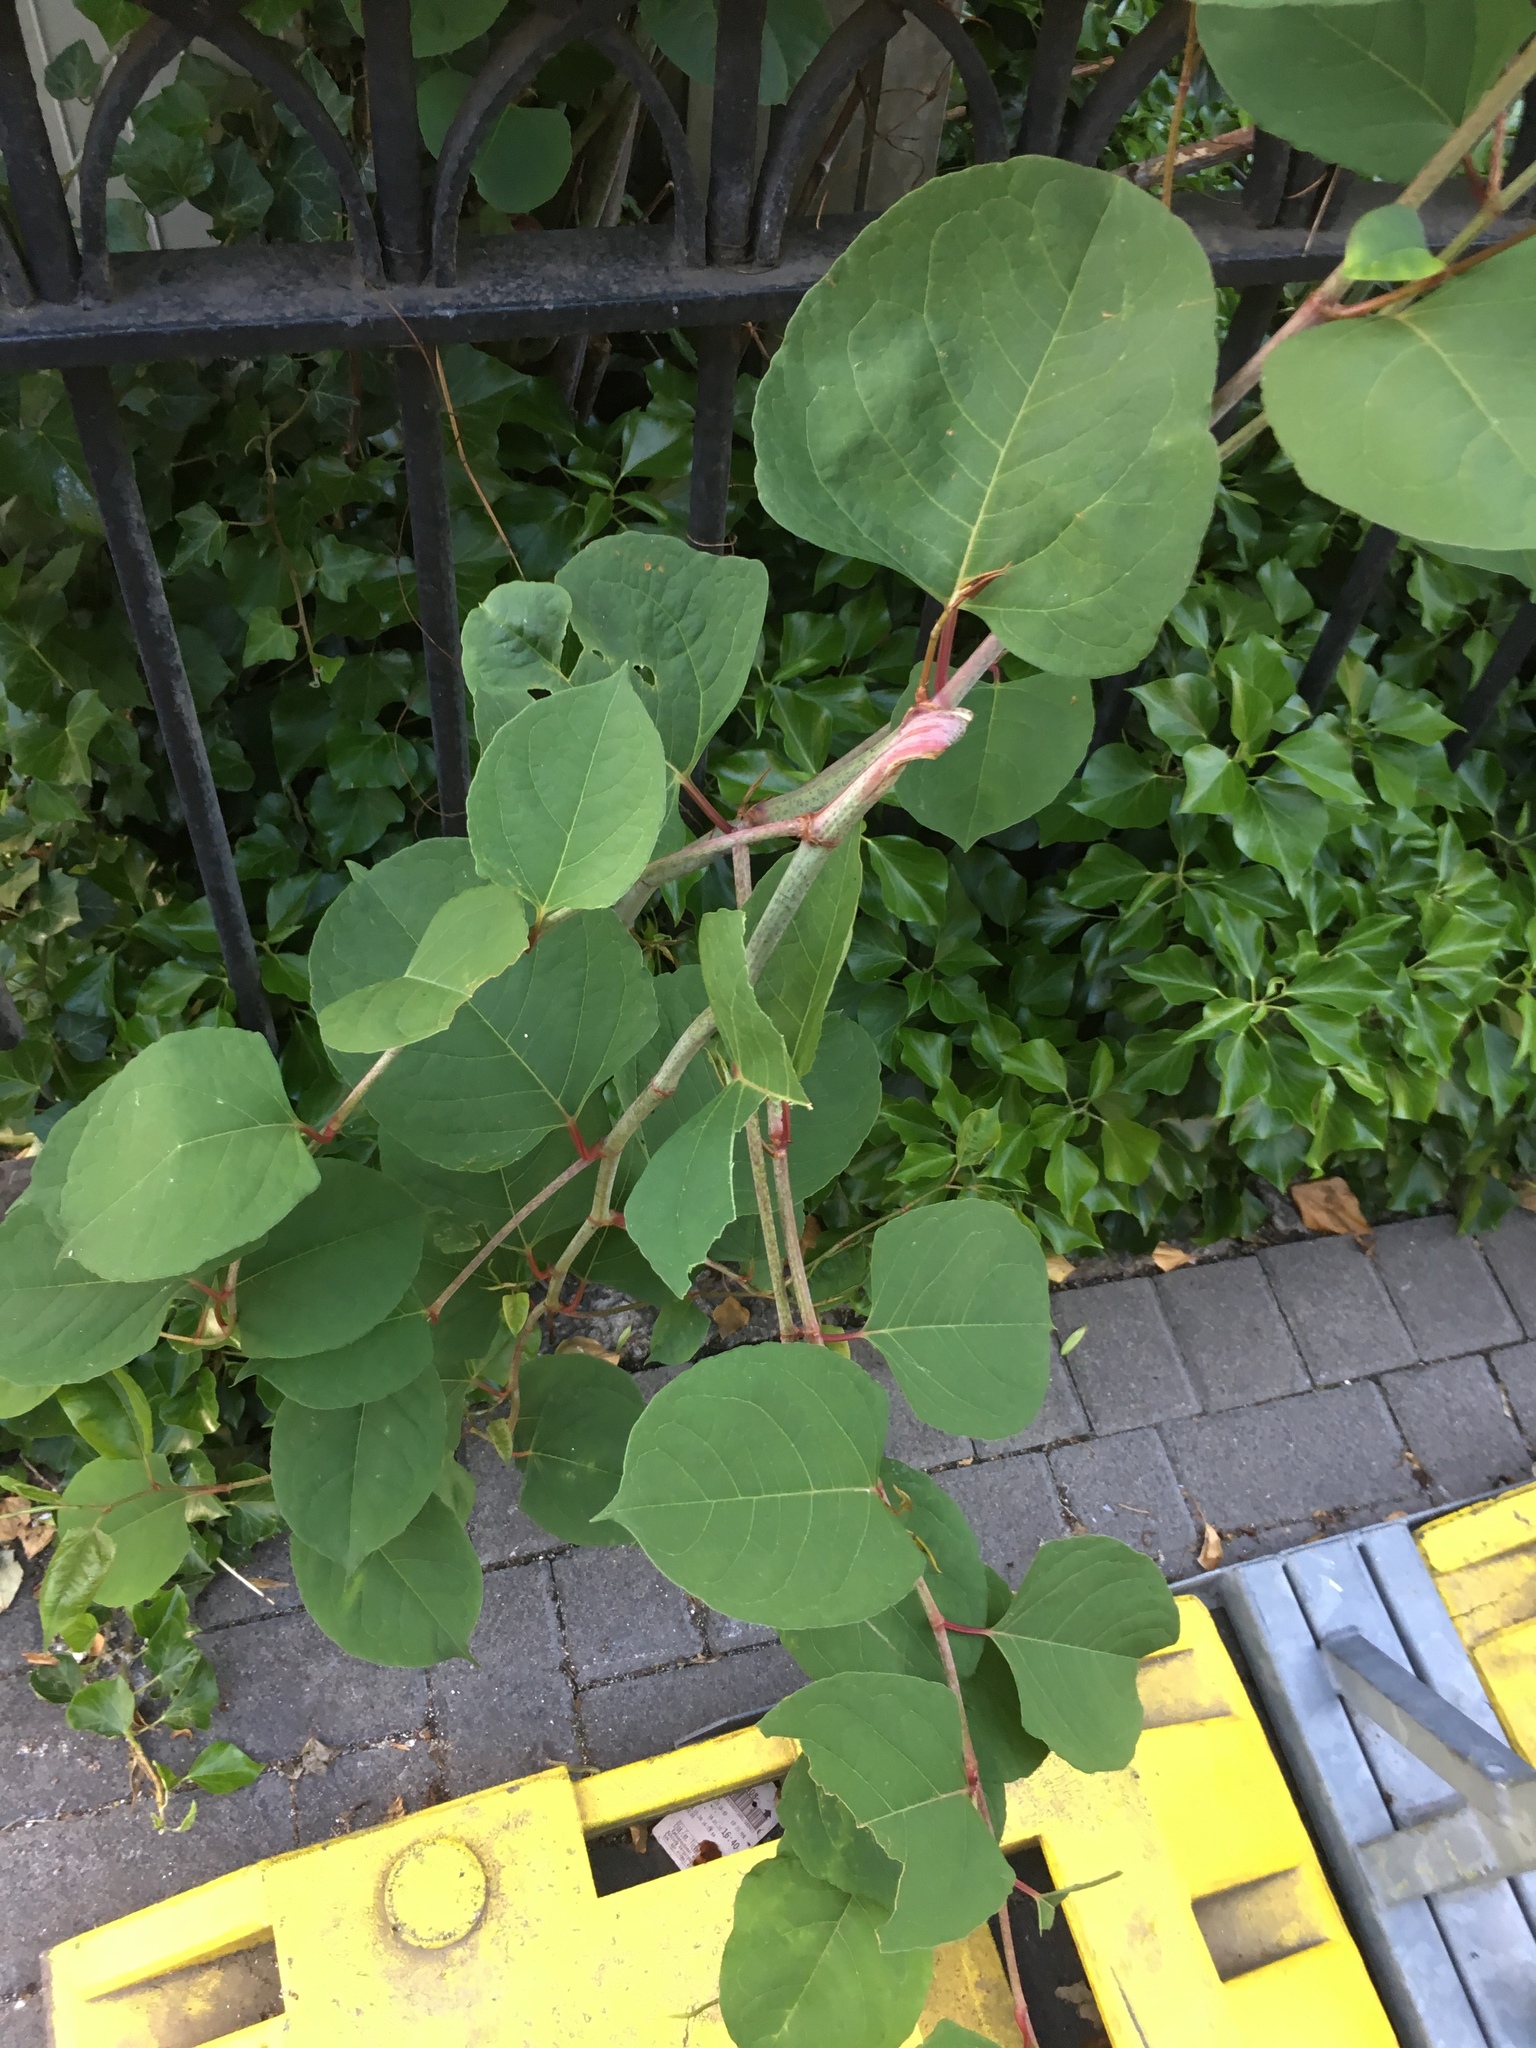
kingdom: Plantae
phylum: Tracheophyta
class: Magnoliopsida
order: Caryophyllales
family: Polygonaceae
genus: Reynoutria
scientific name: Reynoutria japonica
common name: Japanese knotweed
